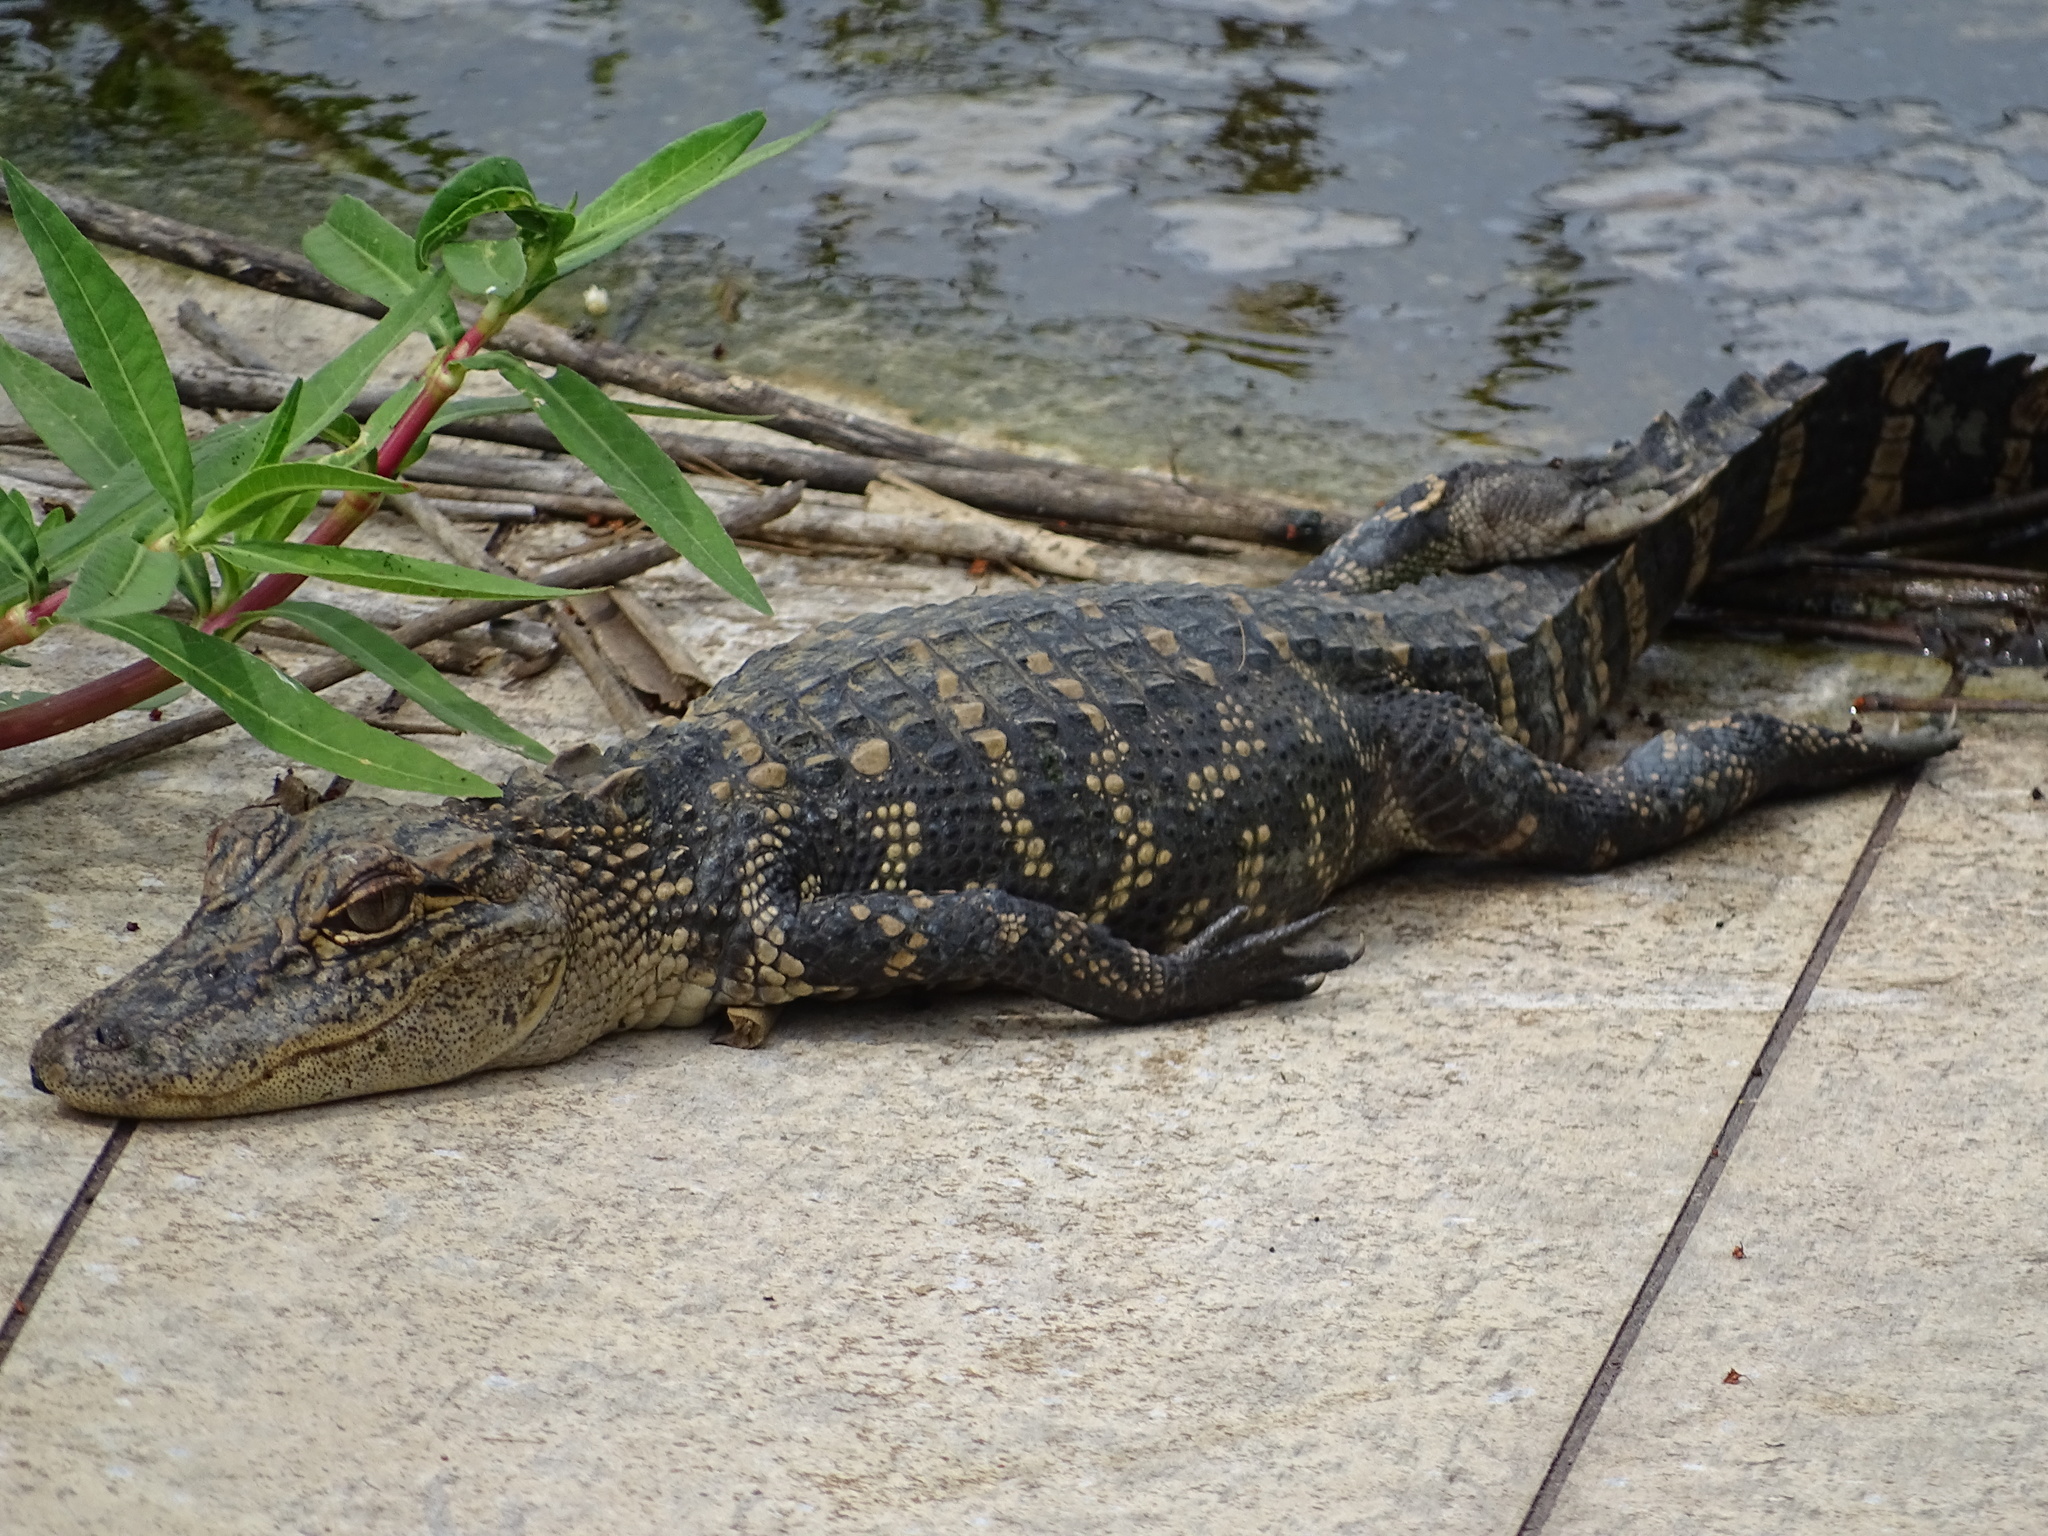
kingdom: Animalia
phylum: Chordata
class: Crocodylia
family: Alligatoridae
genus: Alligator
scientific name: Alligator mississippiensis
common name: American alligator
